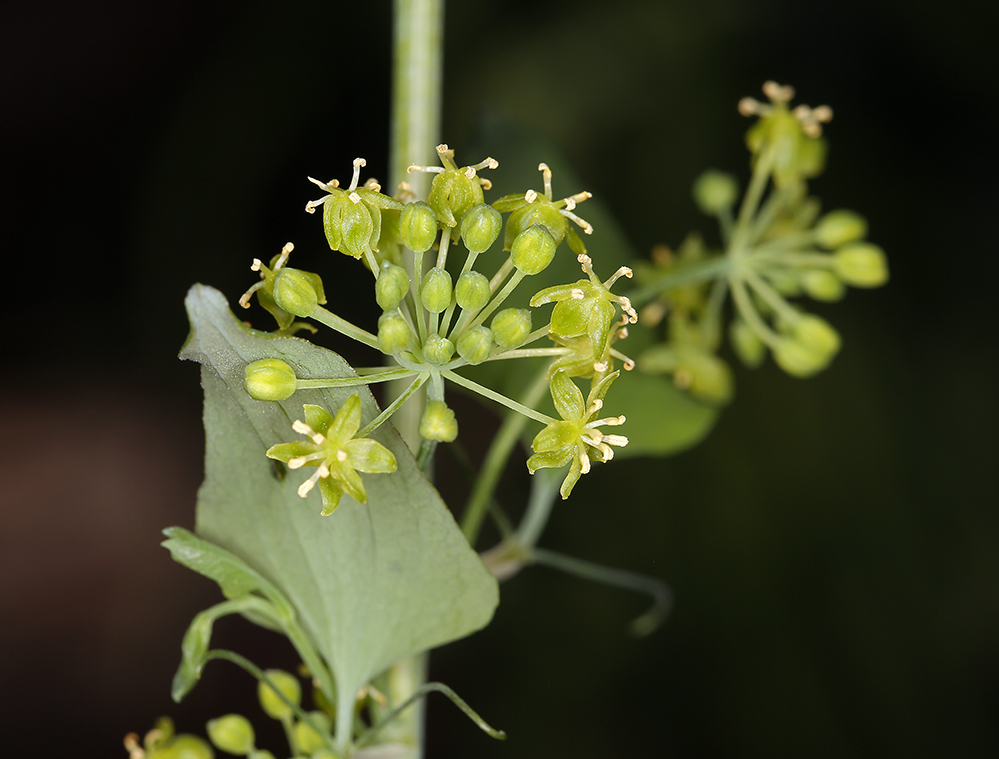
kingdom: Plantae
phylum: Tracheophyta
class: Liliopsida
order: Liliales
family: Smilacaceae
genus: Smilax
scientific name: Smilax jamesii
